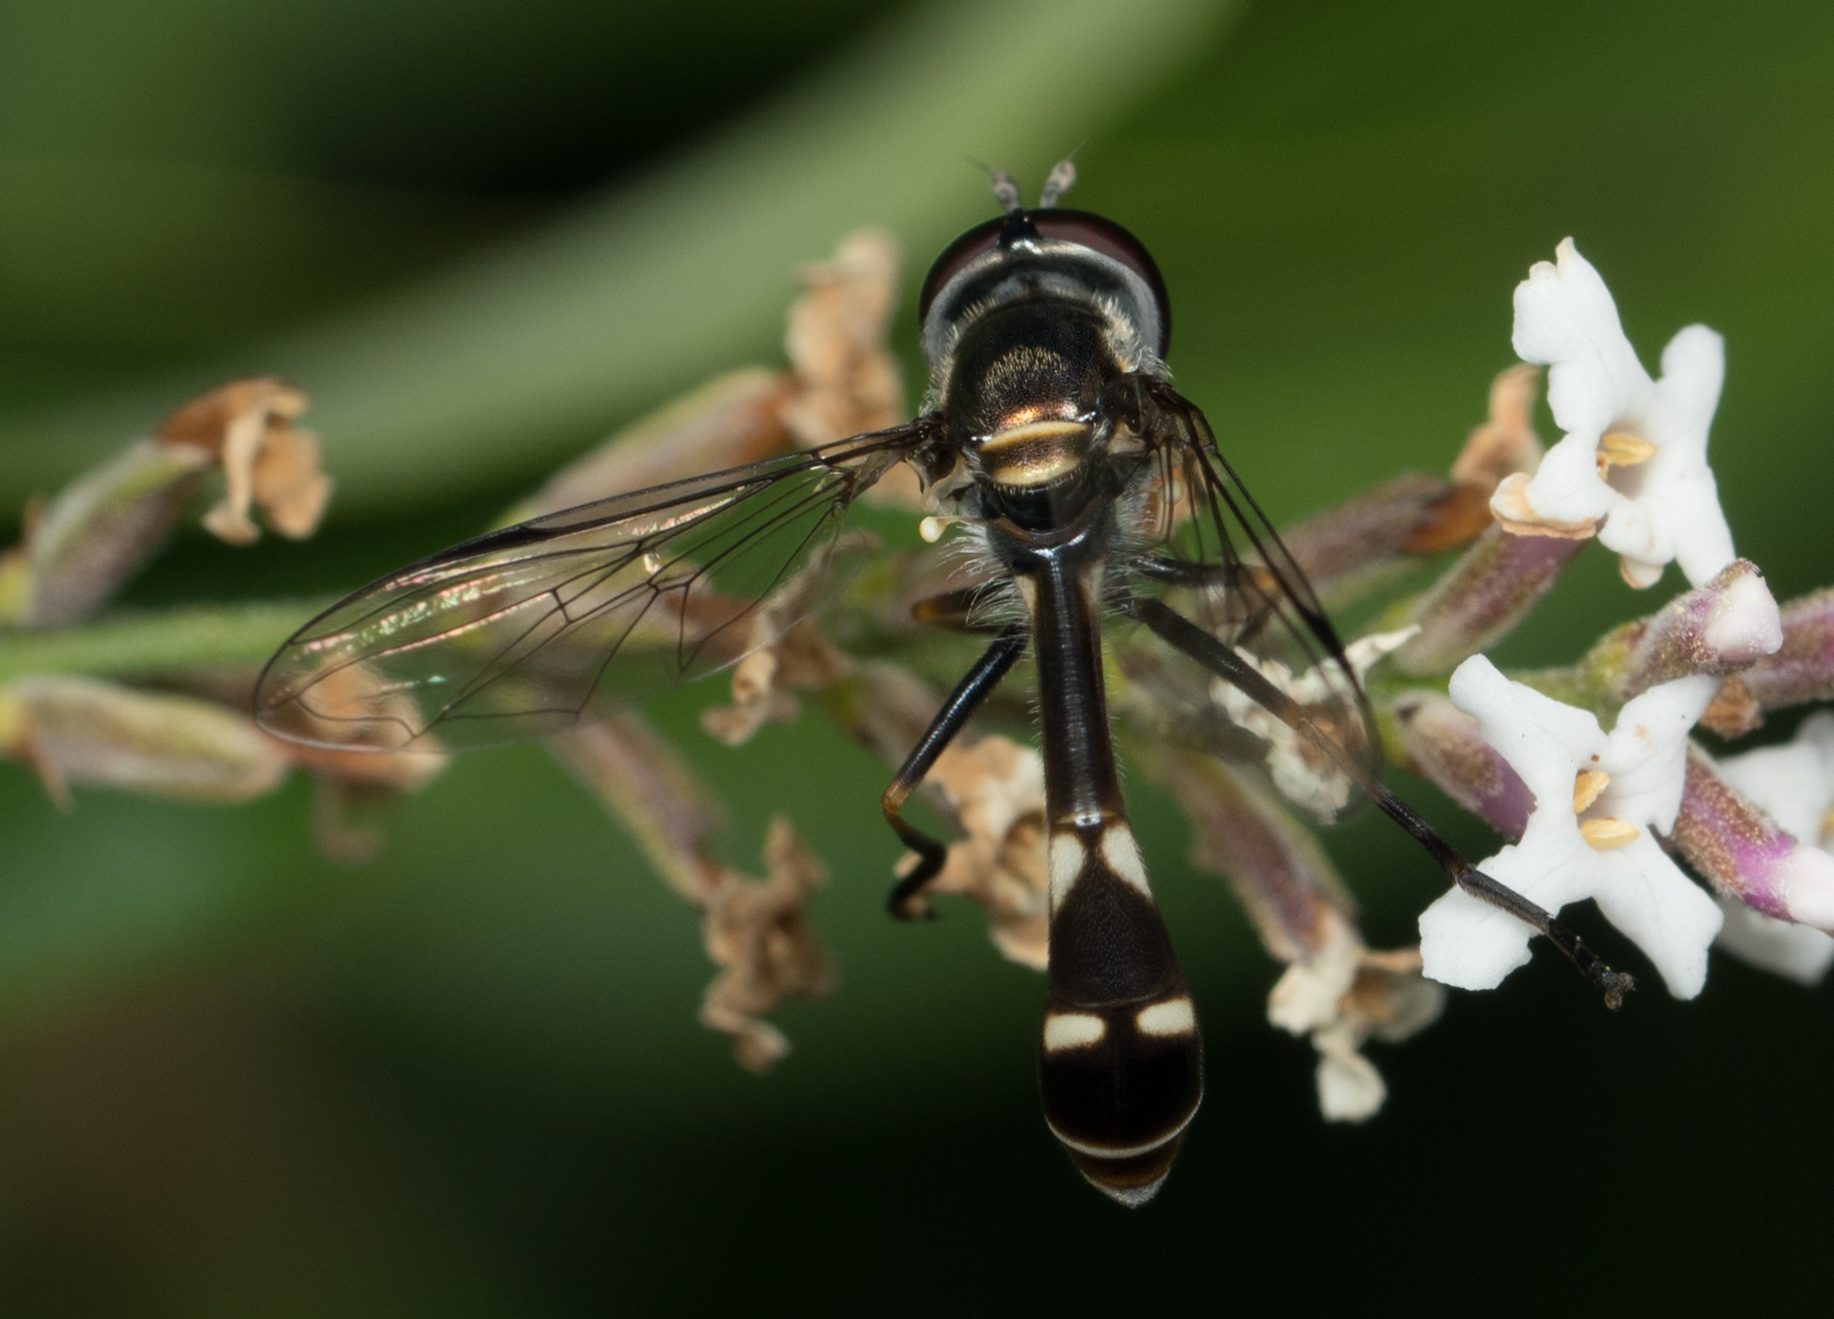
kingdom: Animalia
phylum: Arthropoda
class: Insecta
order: Diptera
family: Syrphidae
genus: Dioprosopa
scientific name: Dioprosopa clavatus
